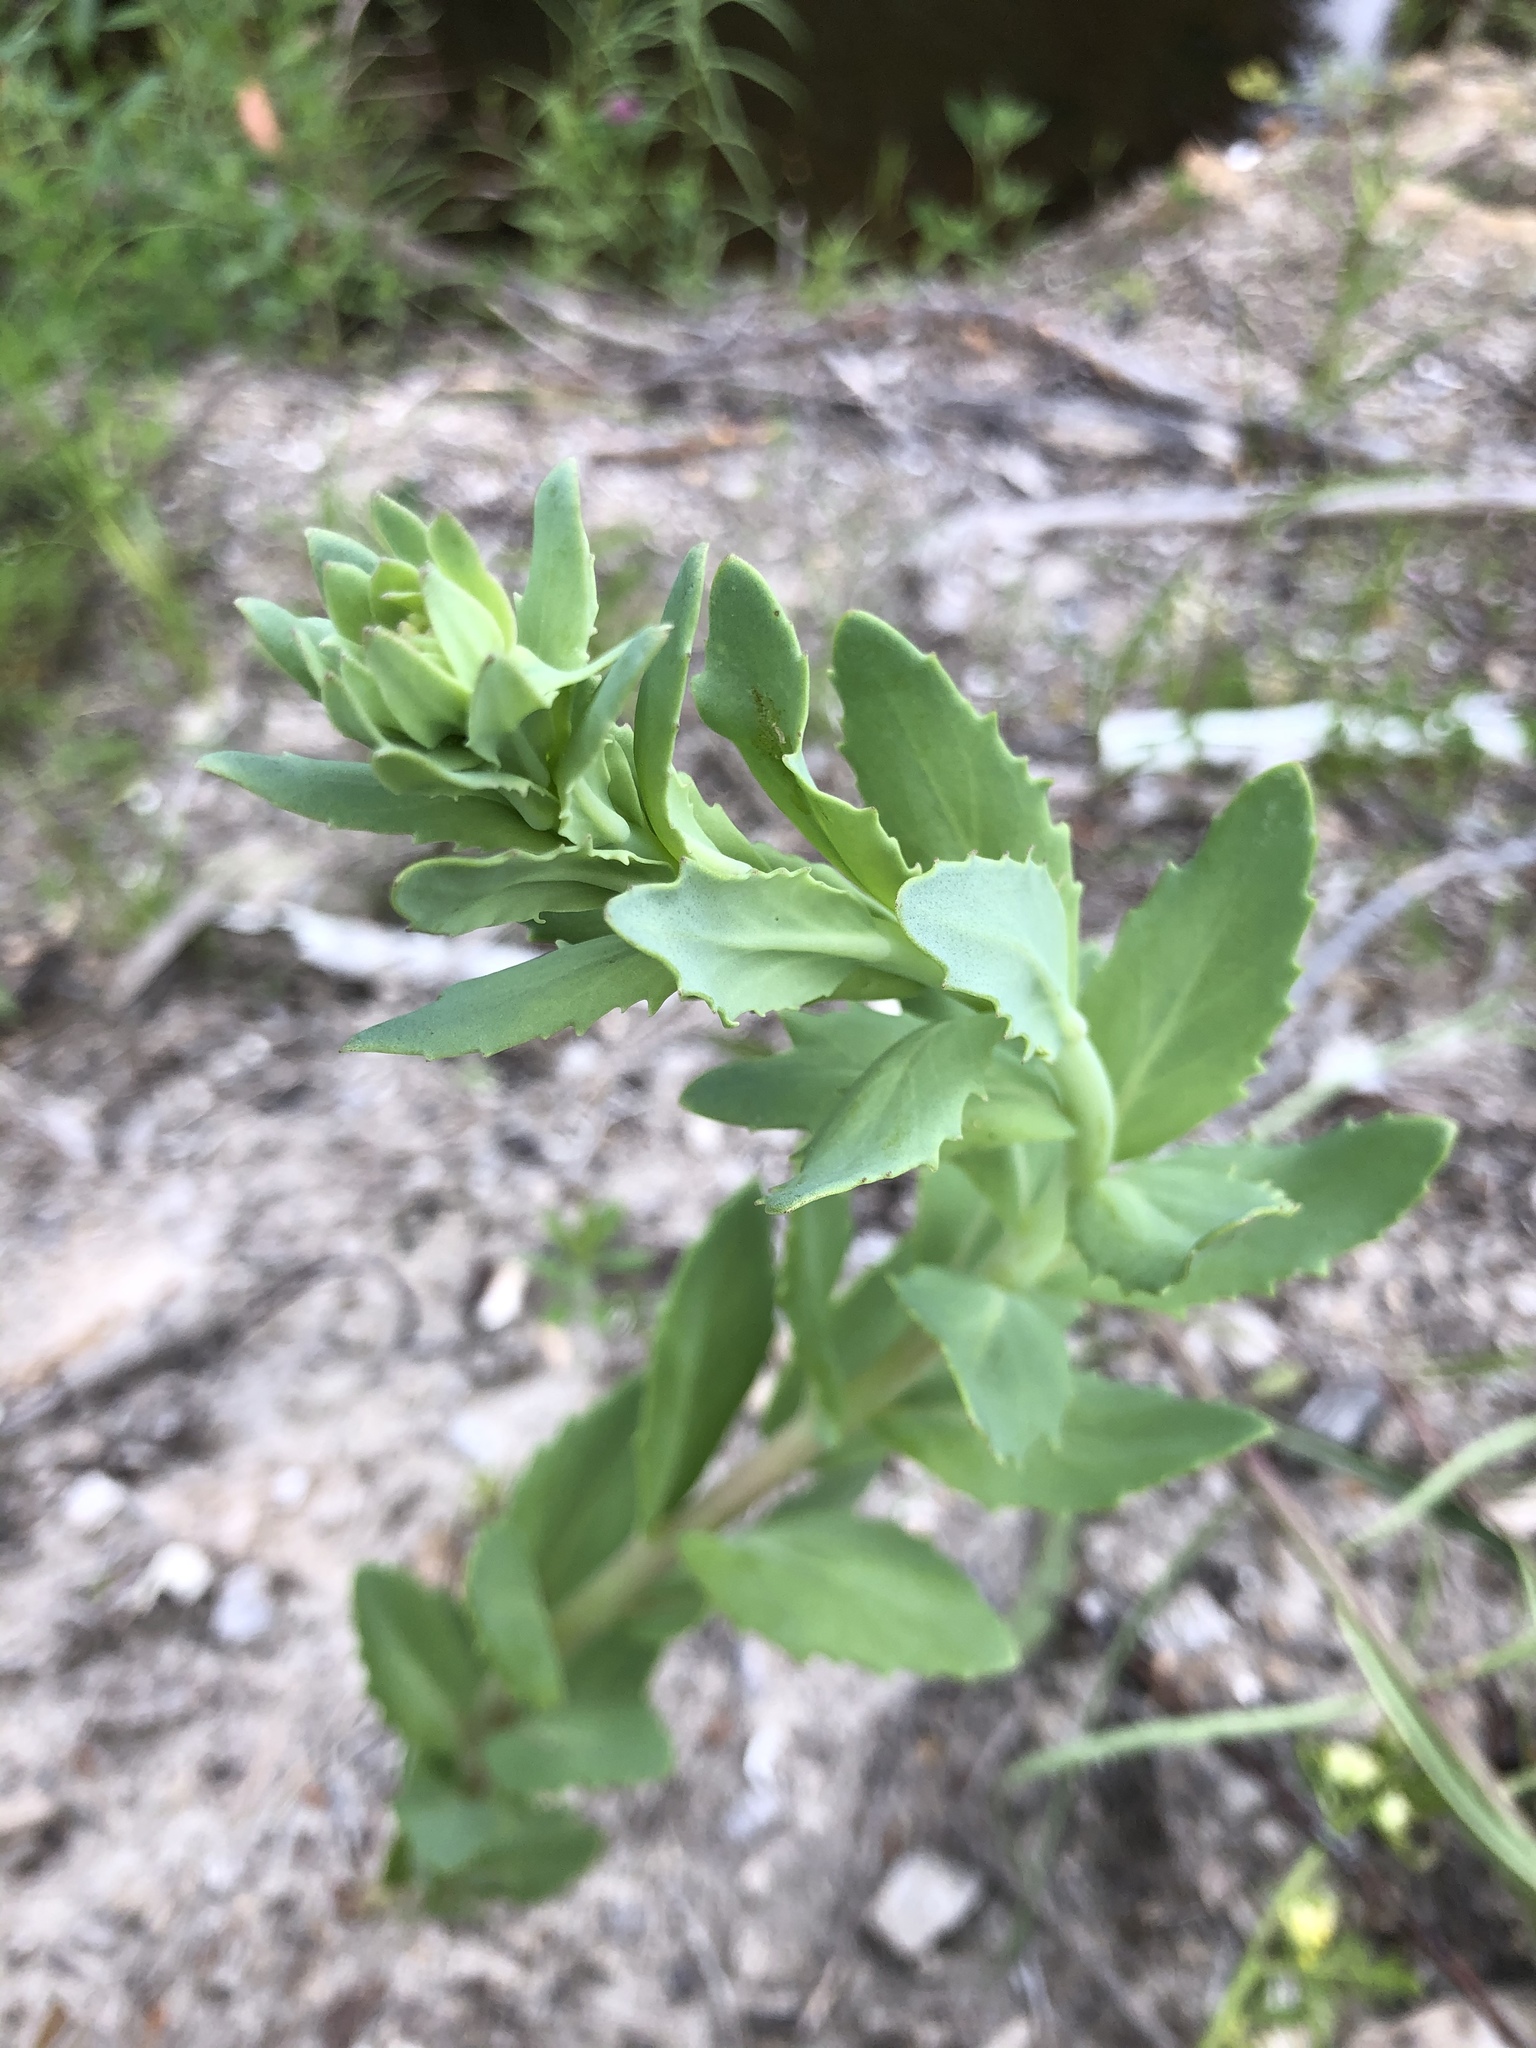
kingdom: Plantae
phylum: Tracheophyta
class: Magnoliopsida
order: Saxifragales
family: Crassulaceae
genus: Hylotelephium
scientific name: Hylotelephium telephium
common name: Live-forever
